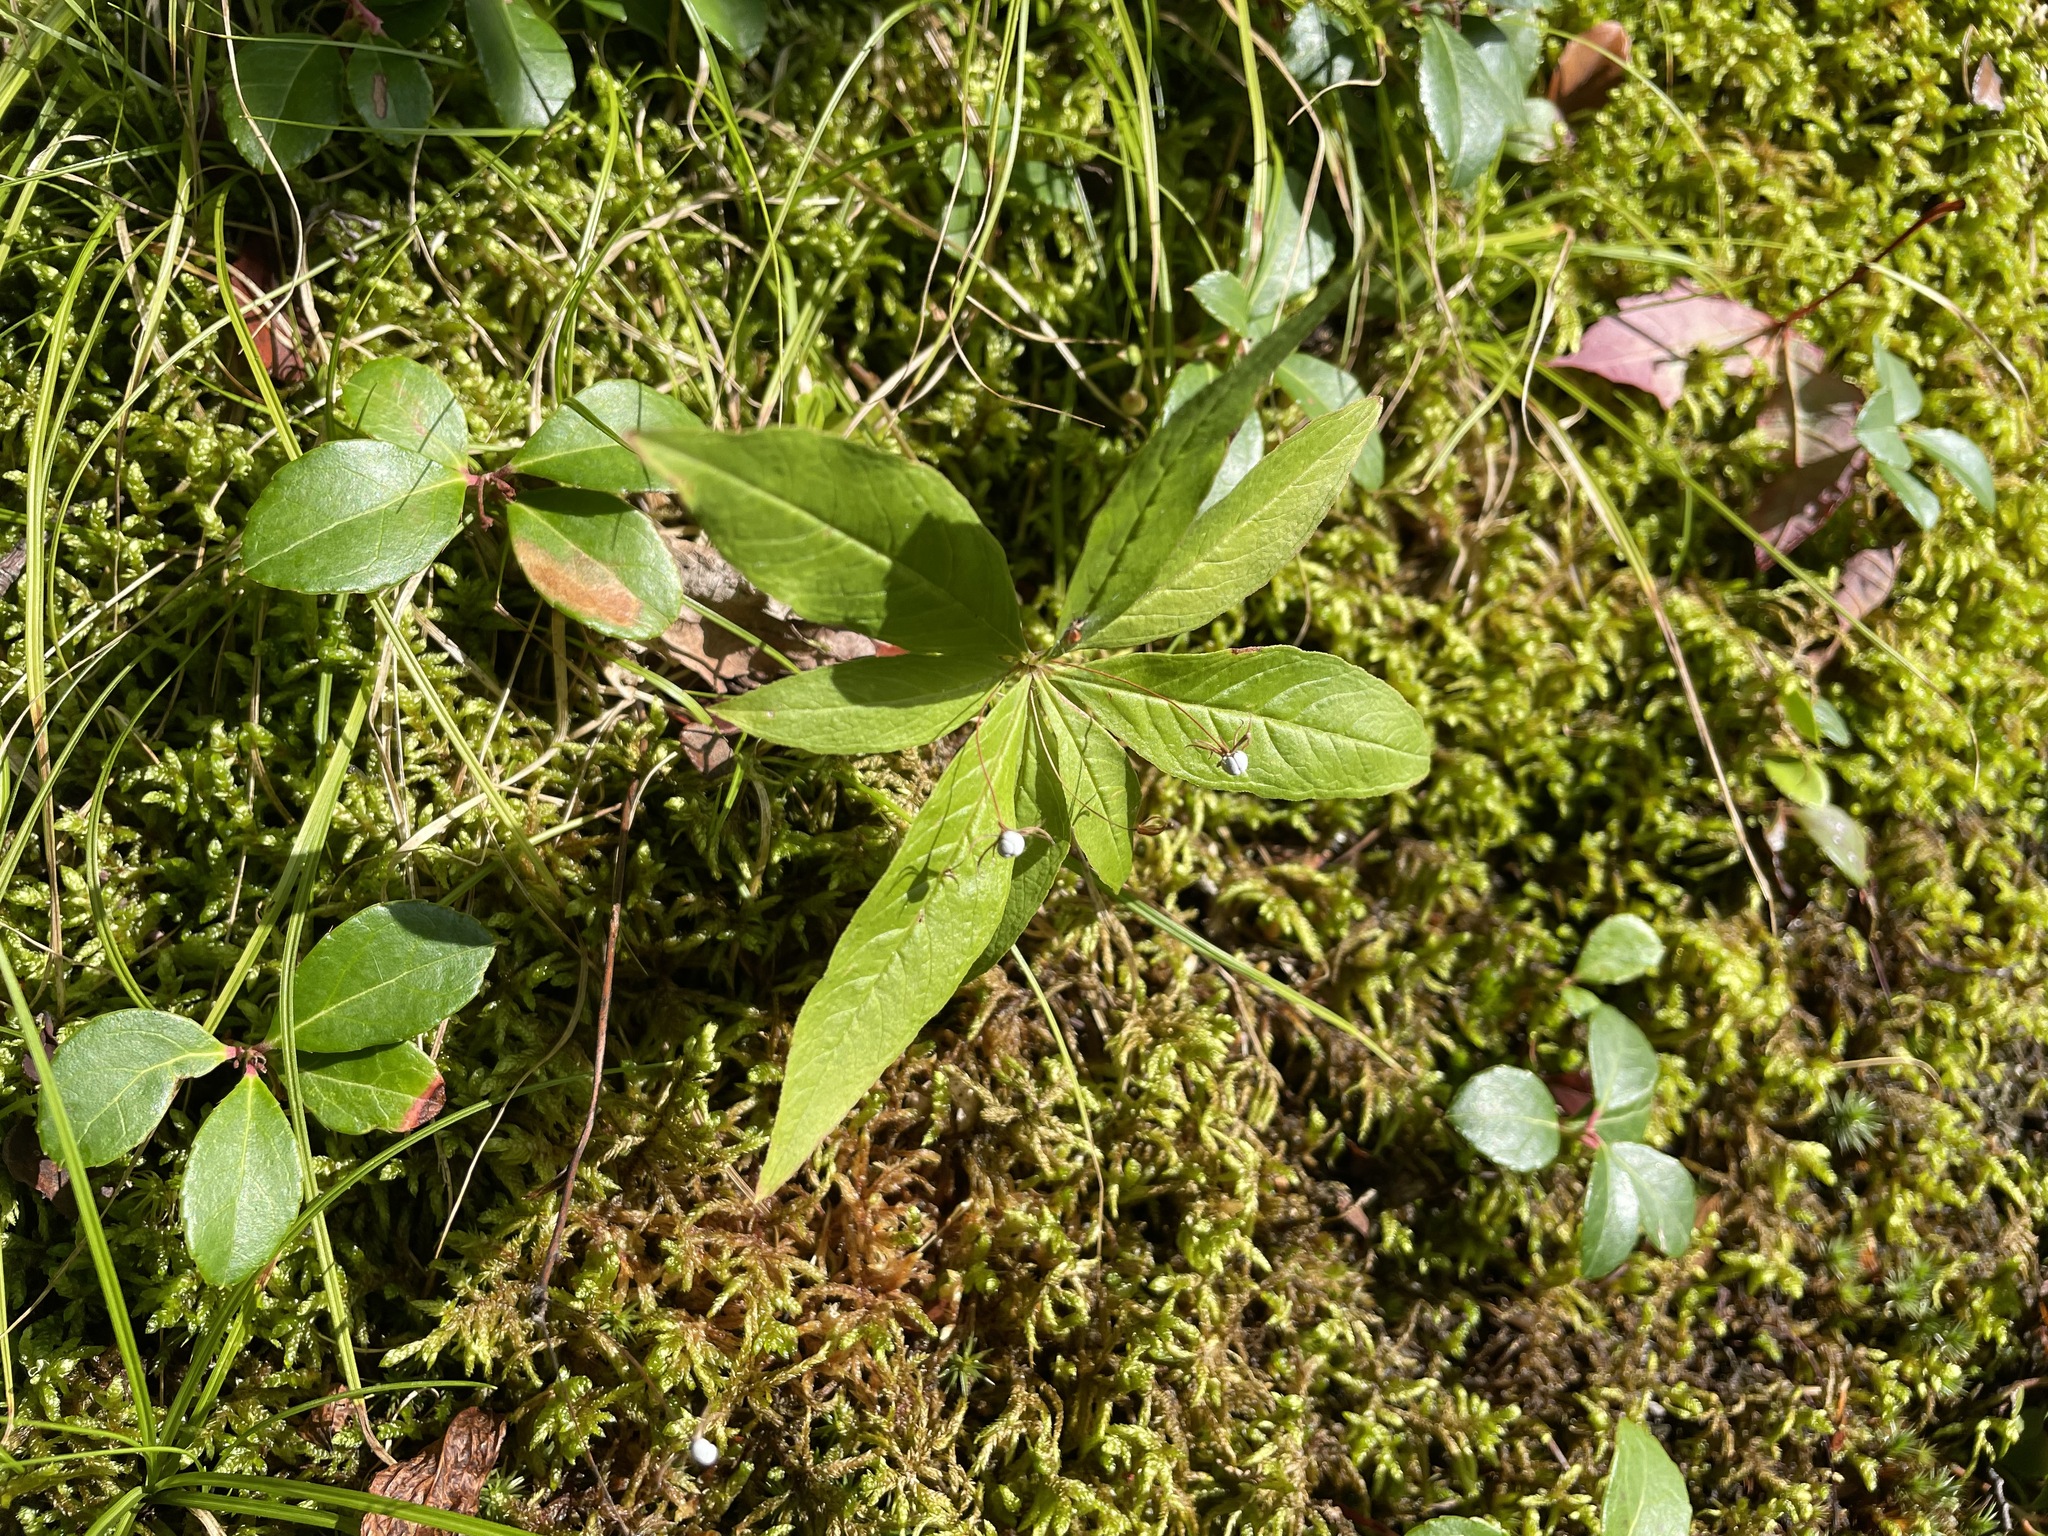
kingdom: Plantae
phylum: Tracheophyta
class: Magnoliopsida
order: Ericales
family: Primulaceae
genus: Lysimachia
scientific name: Lysimachia borealis
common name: American starflower
